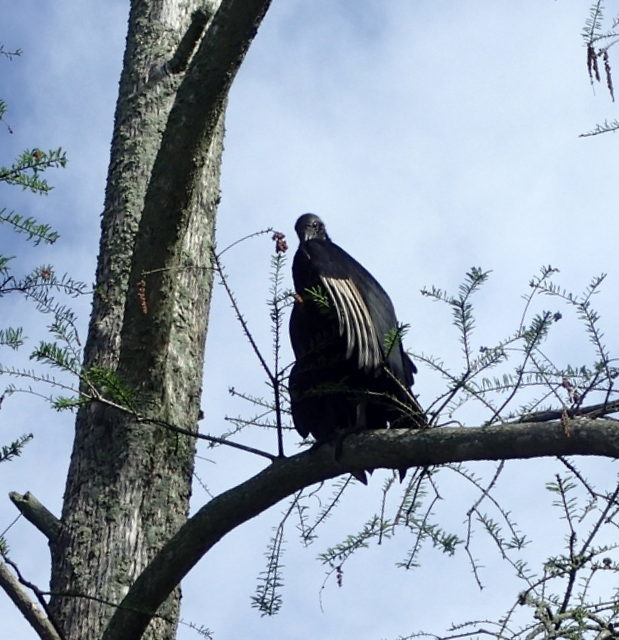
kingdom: Animalia
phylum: Chordata
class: Aves
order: Accipitriformes
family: Cathartidae
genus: Coragyps
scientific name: Coragyps atratus
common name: Black vulture
